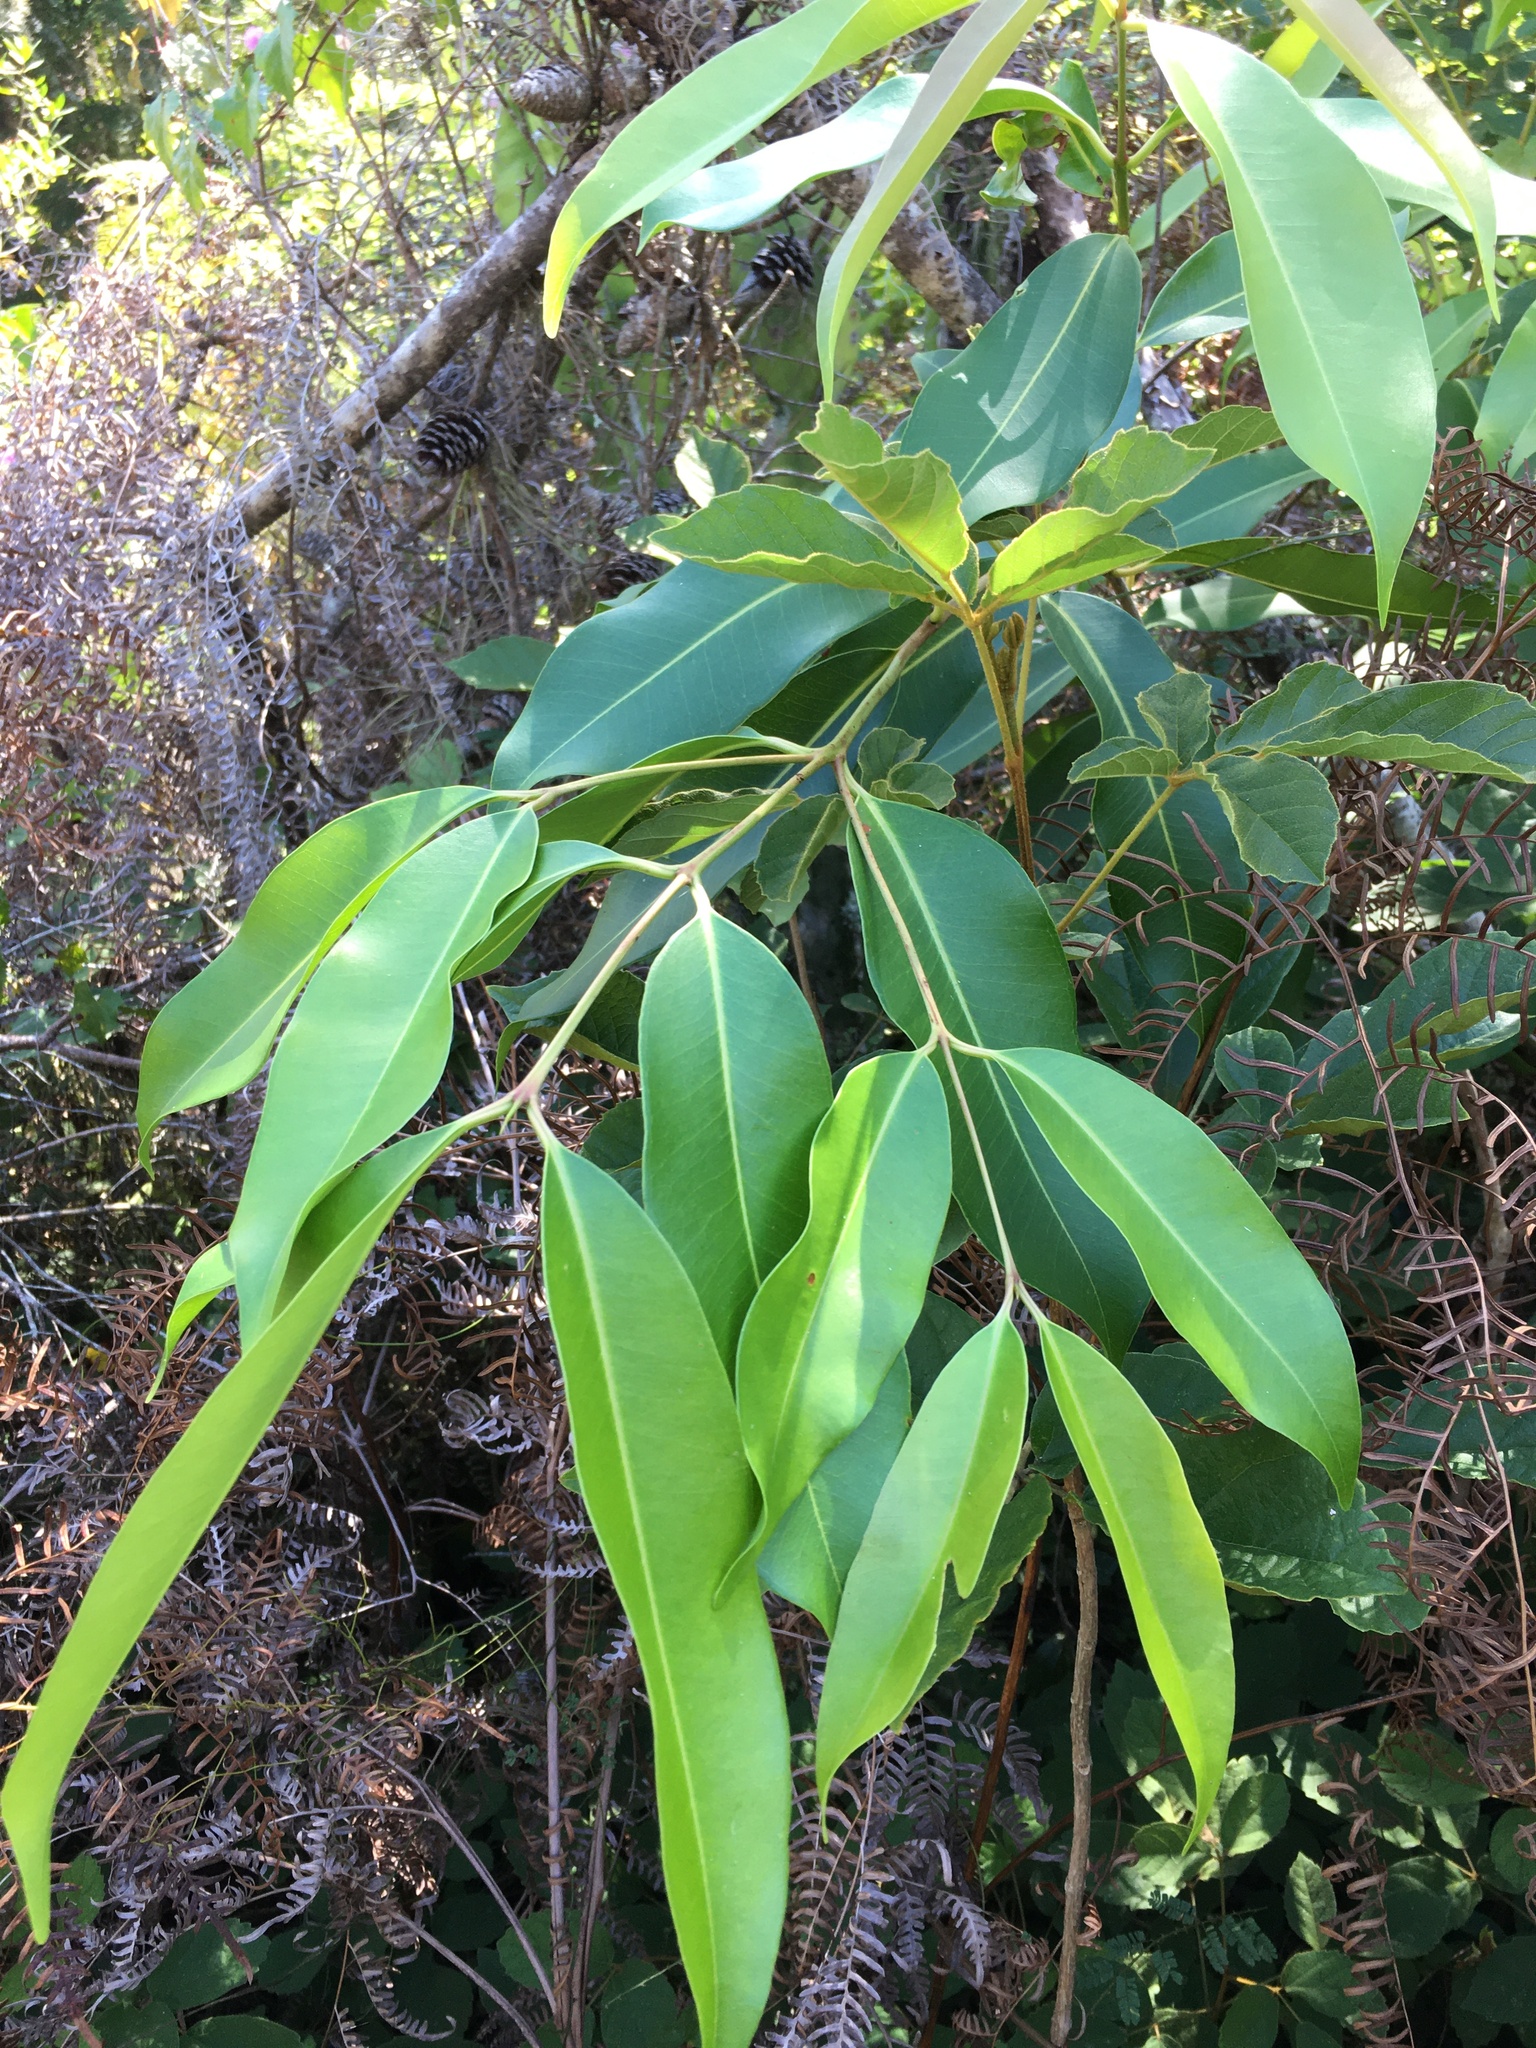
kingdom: Plantae
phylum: Tracheophyta
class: Magnoliopsida
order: Myrtales
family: Myrtaceae
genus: Syzygium
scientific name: Syzygium cumini
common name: Java plum
